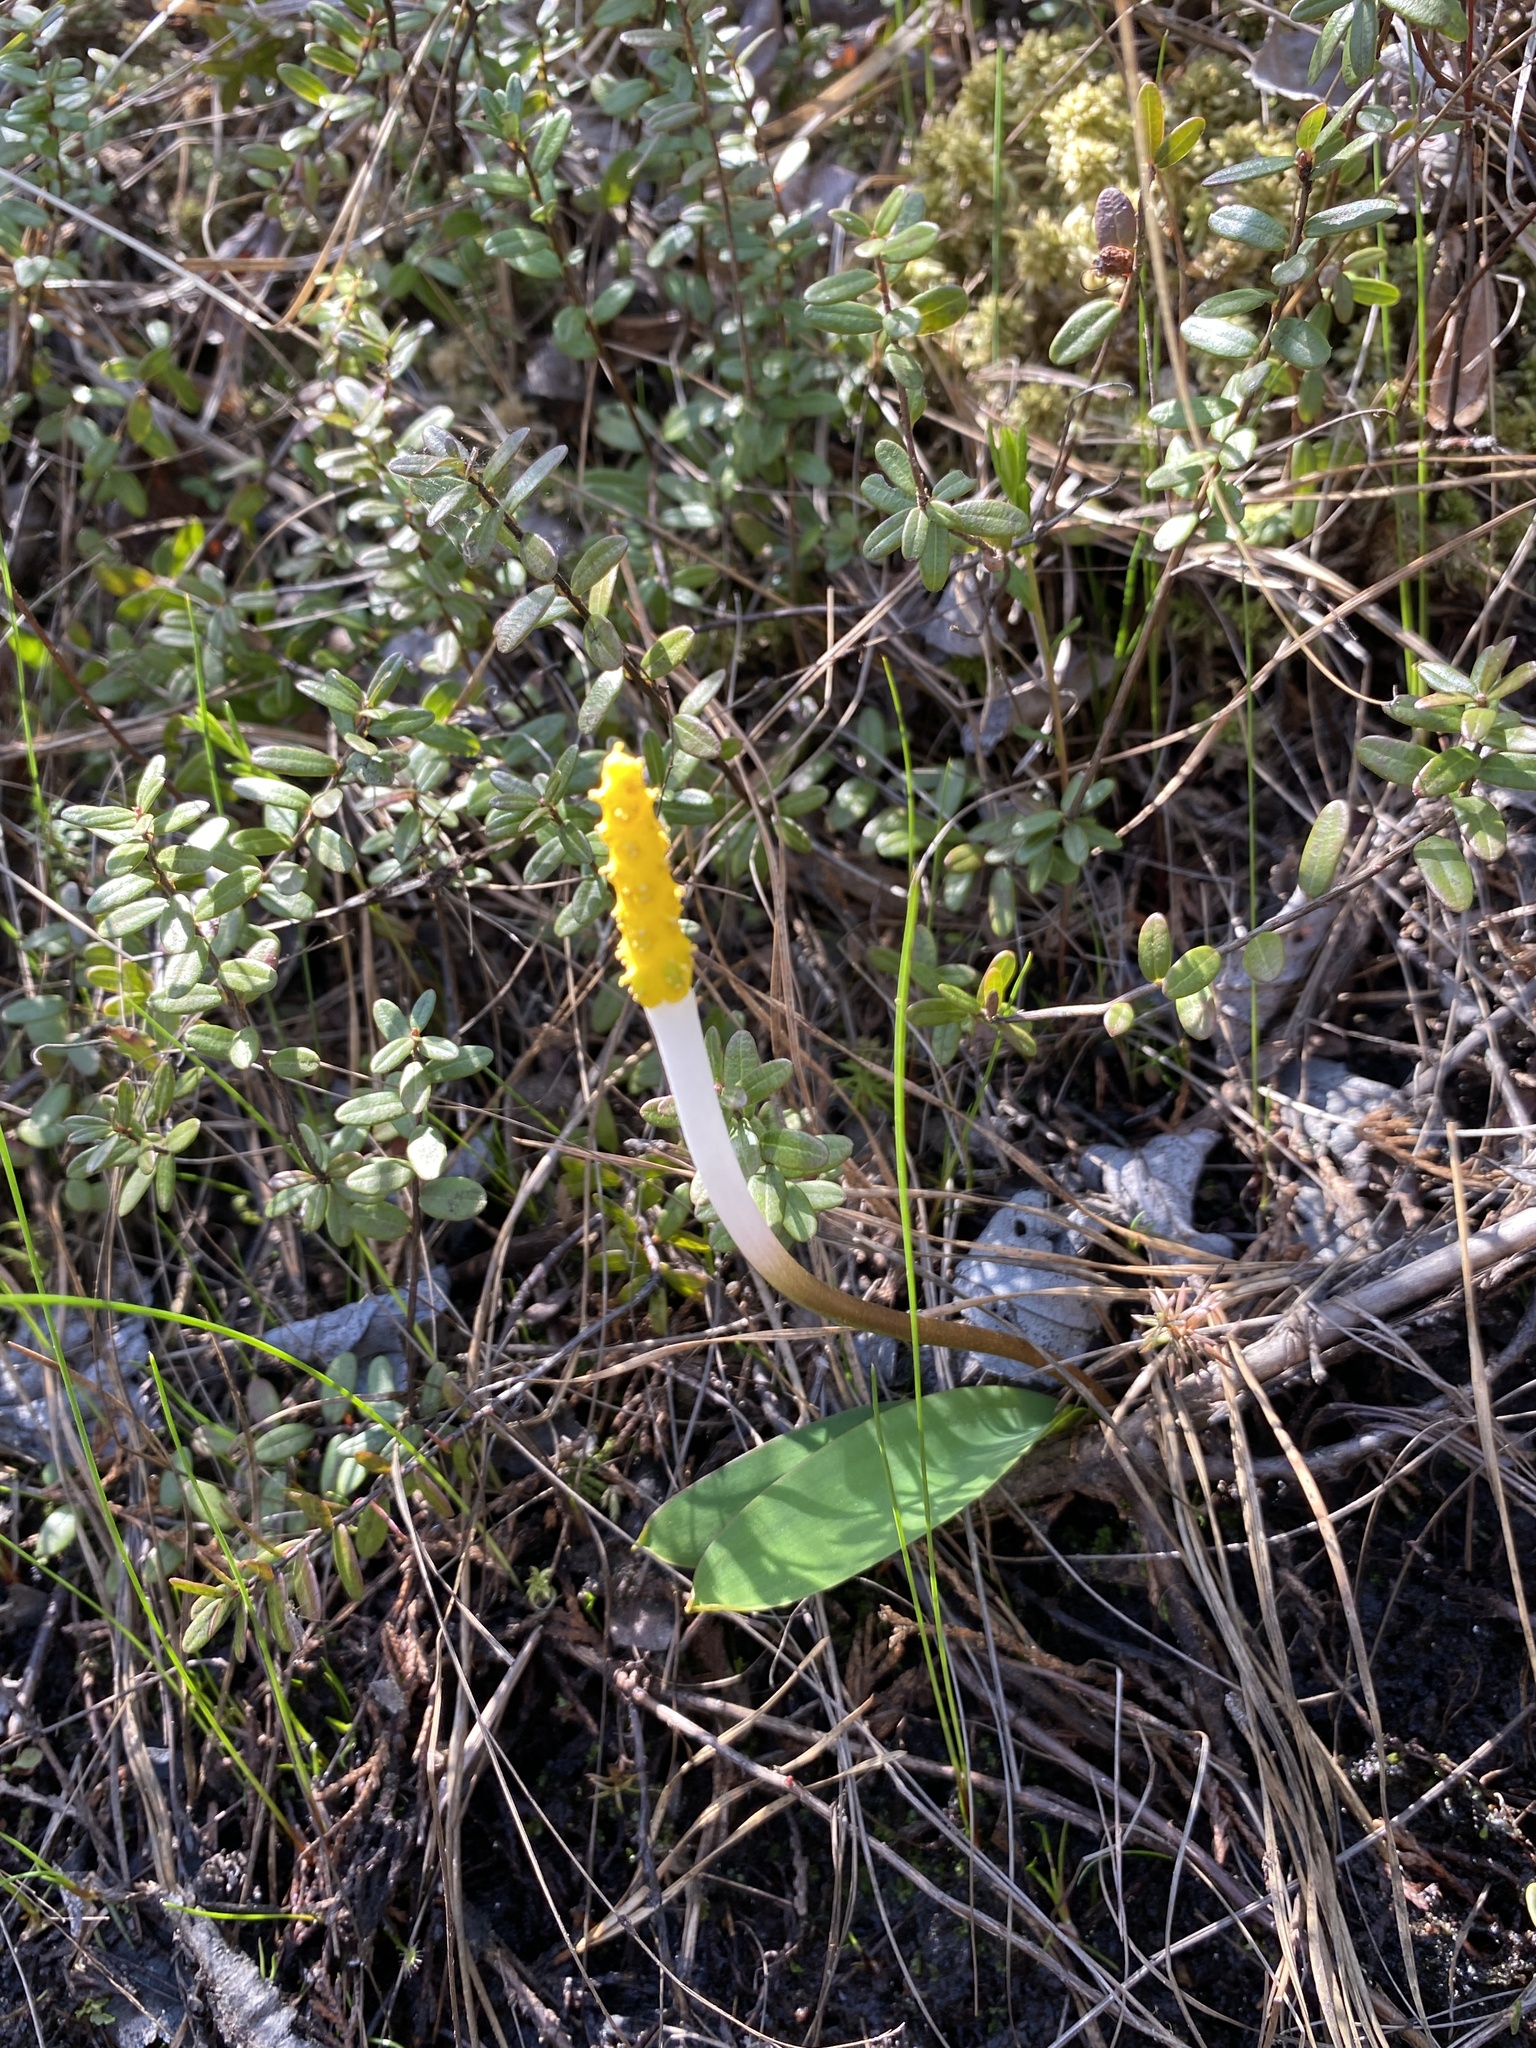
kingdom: Plantae
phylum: Tracheophyta
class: Liliopsida
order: Alismatales
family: Araceae
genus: Orontium
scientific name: Orontium aquaticum
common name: Golden-club
